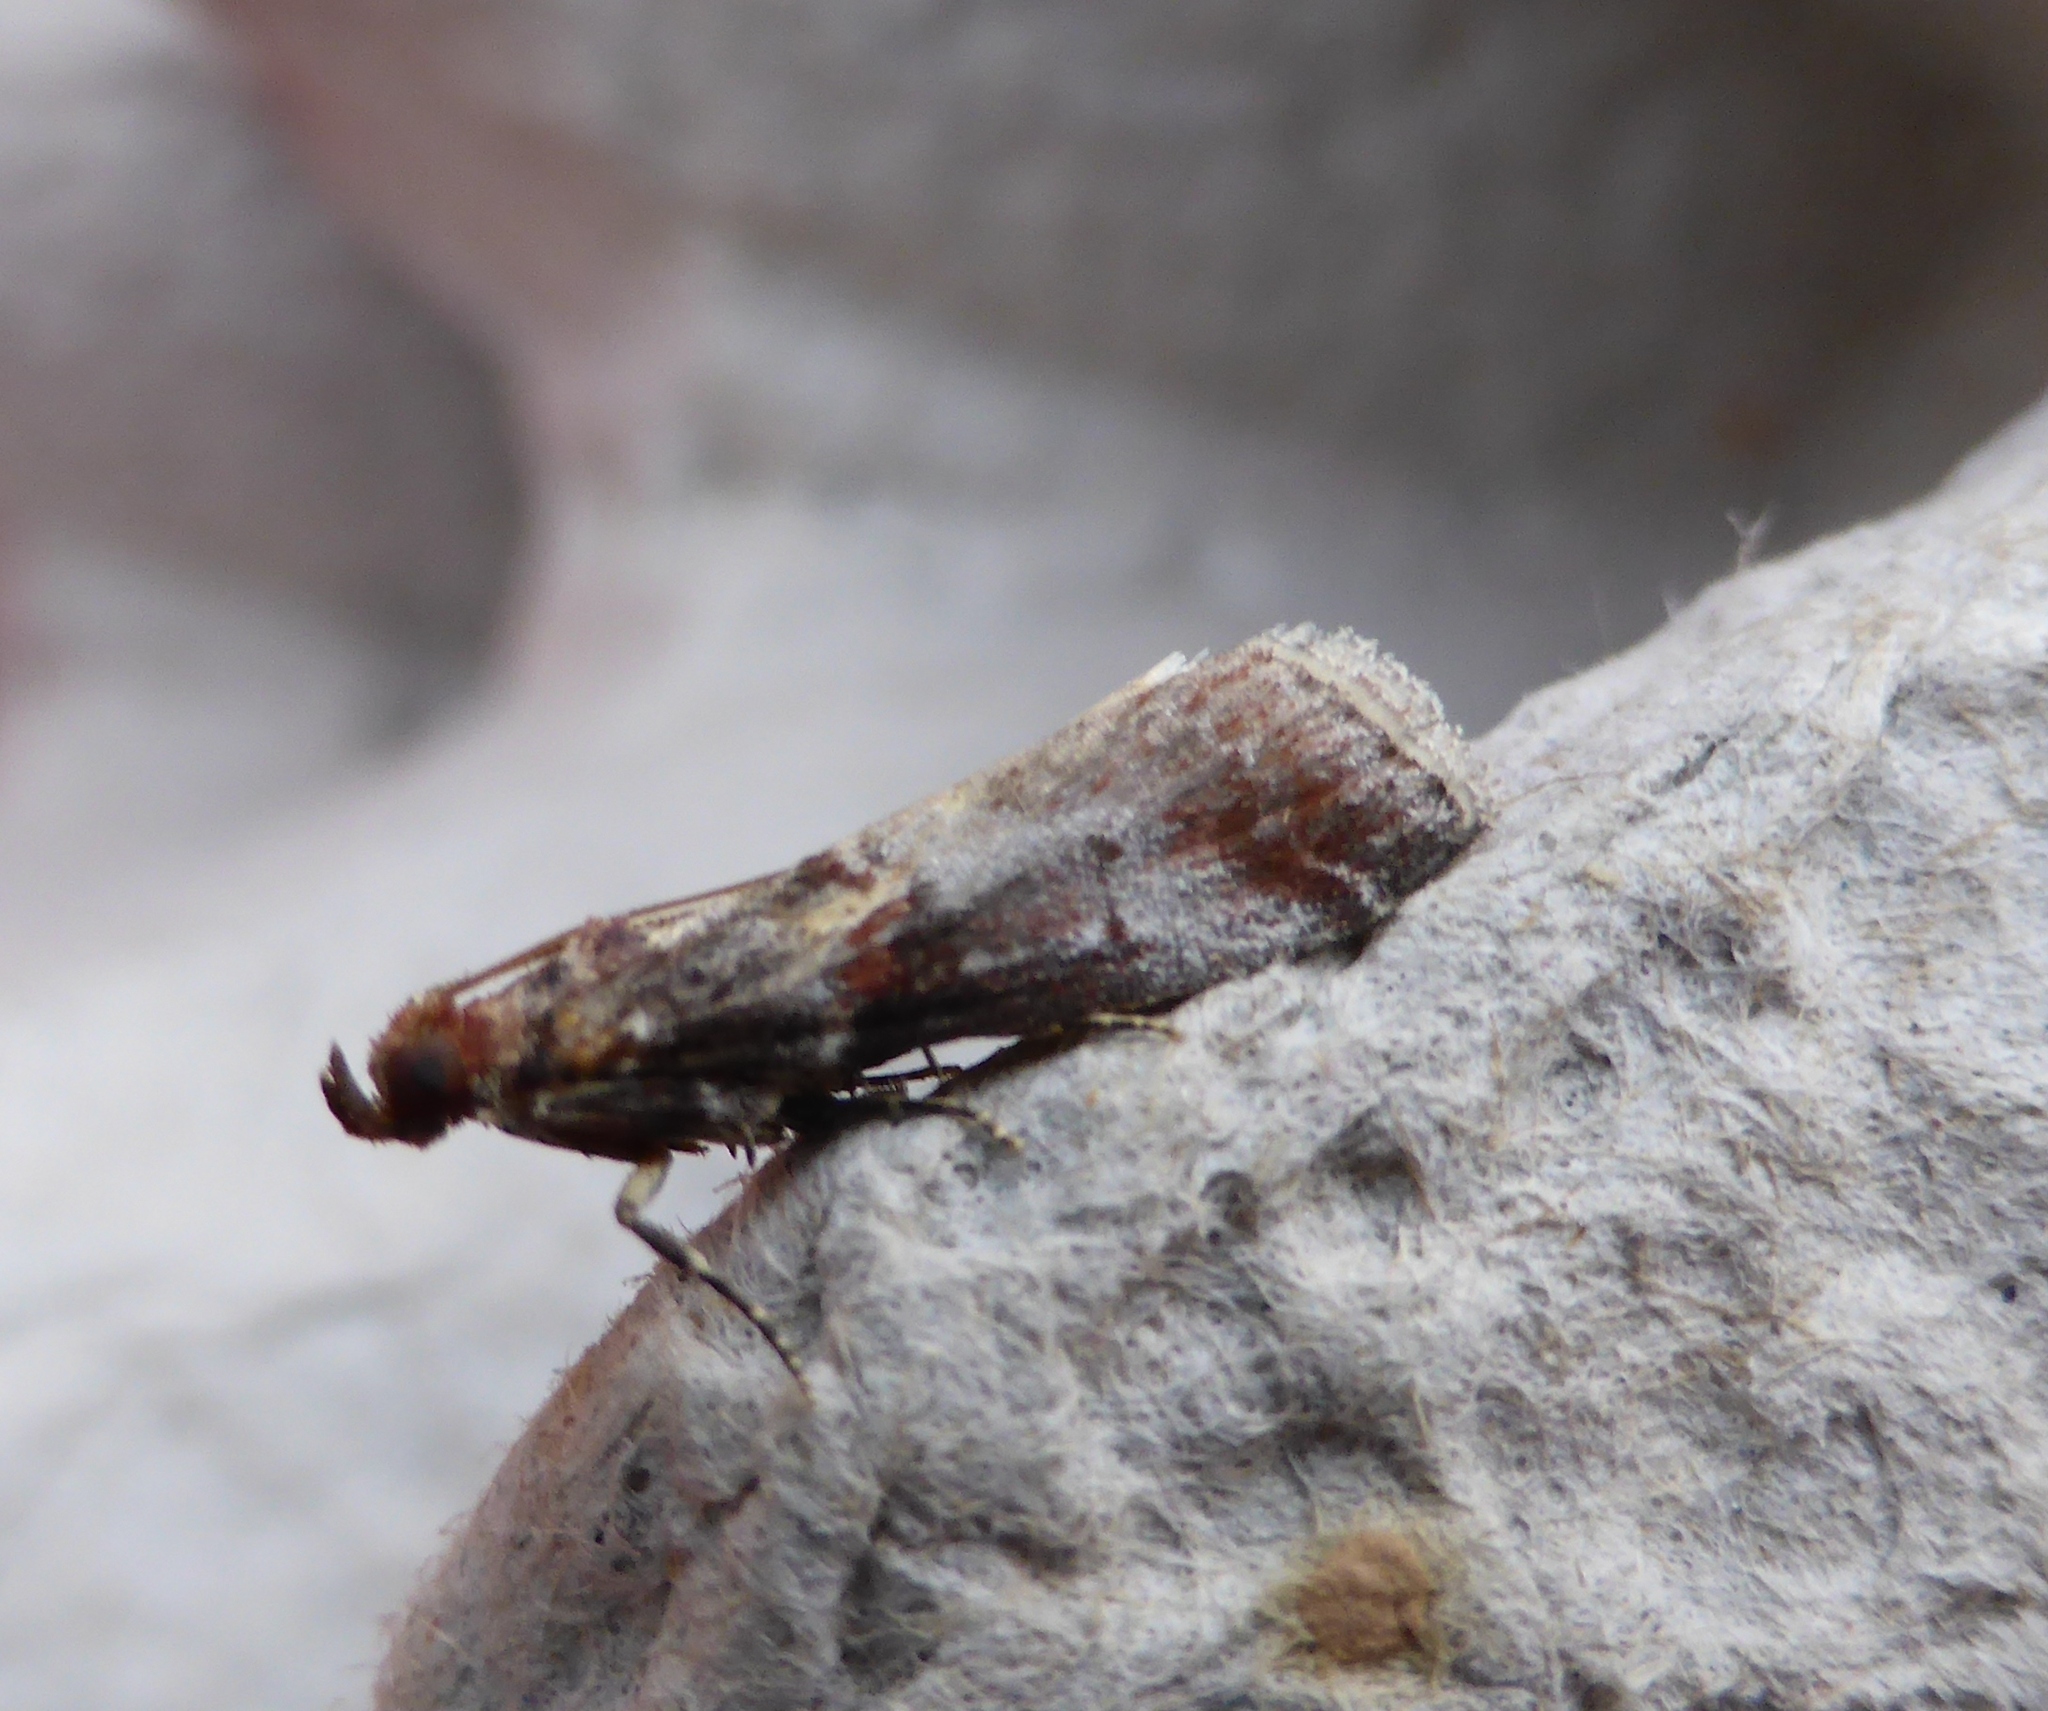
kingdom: Animalia
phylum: Arthropoda
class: Insecta
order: Lepidoptera
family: Pyralidae
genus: Acrobasis
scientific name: Acrobasis advenella
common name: Grey knot-horn
